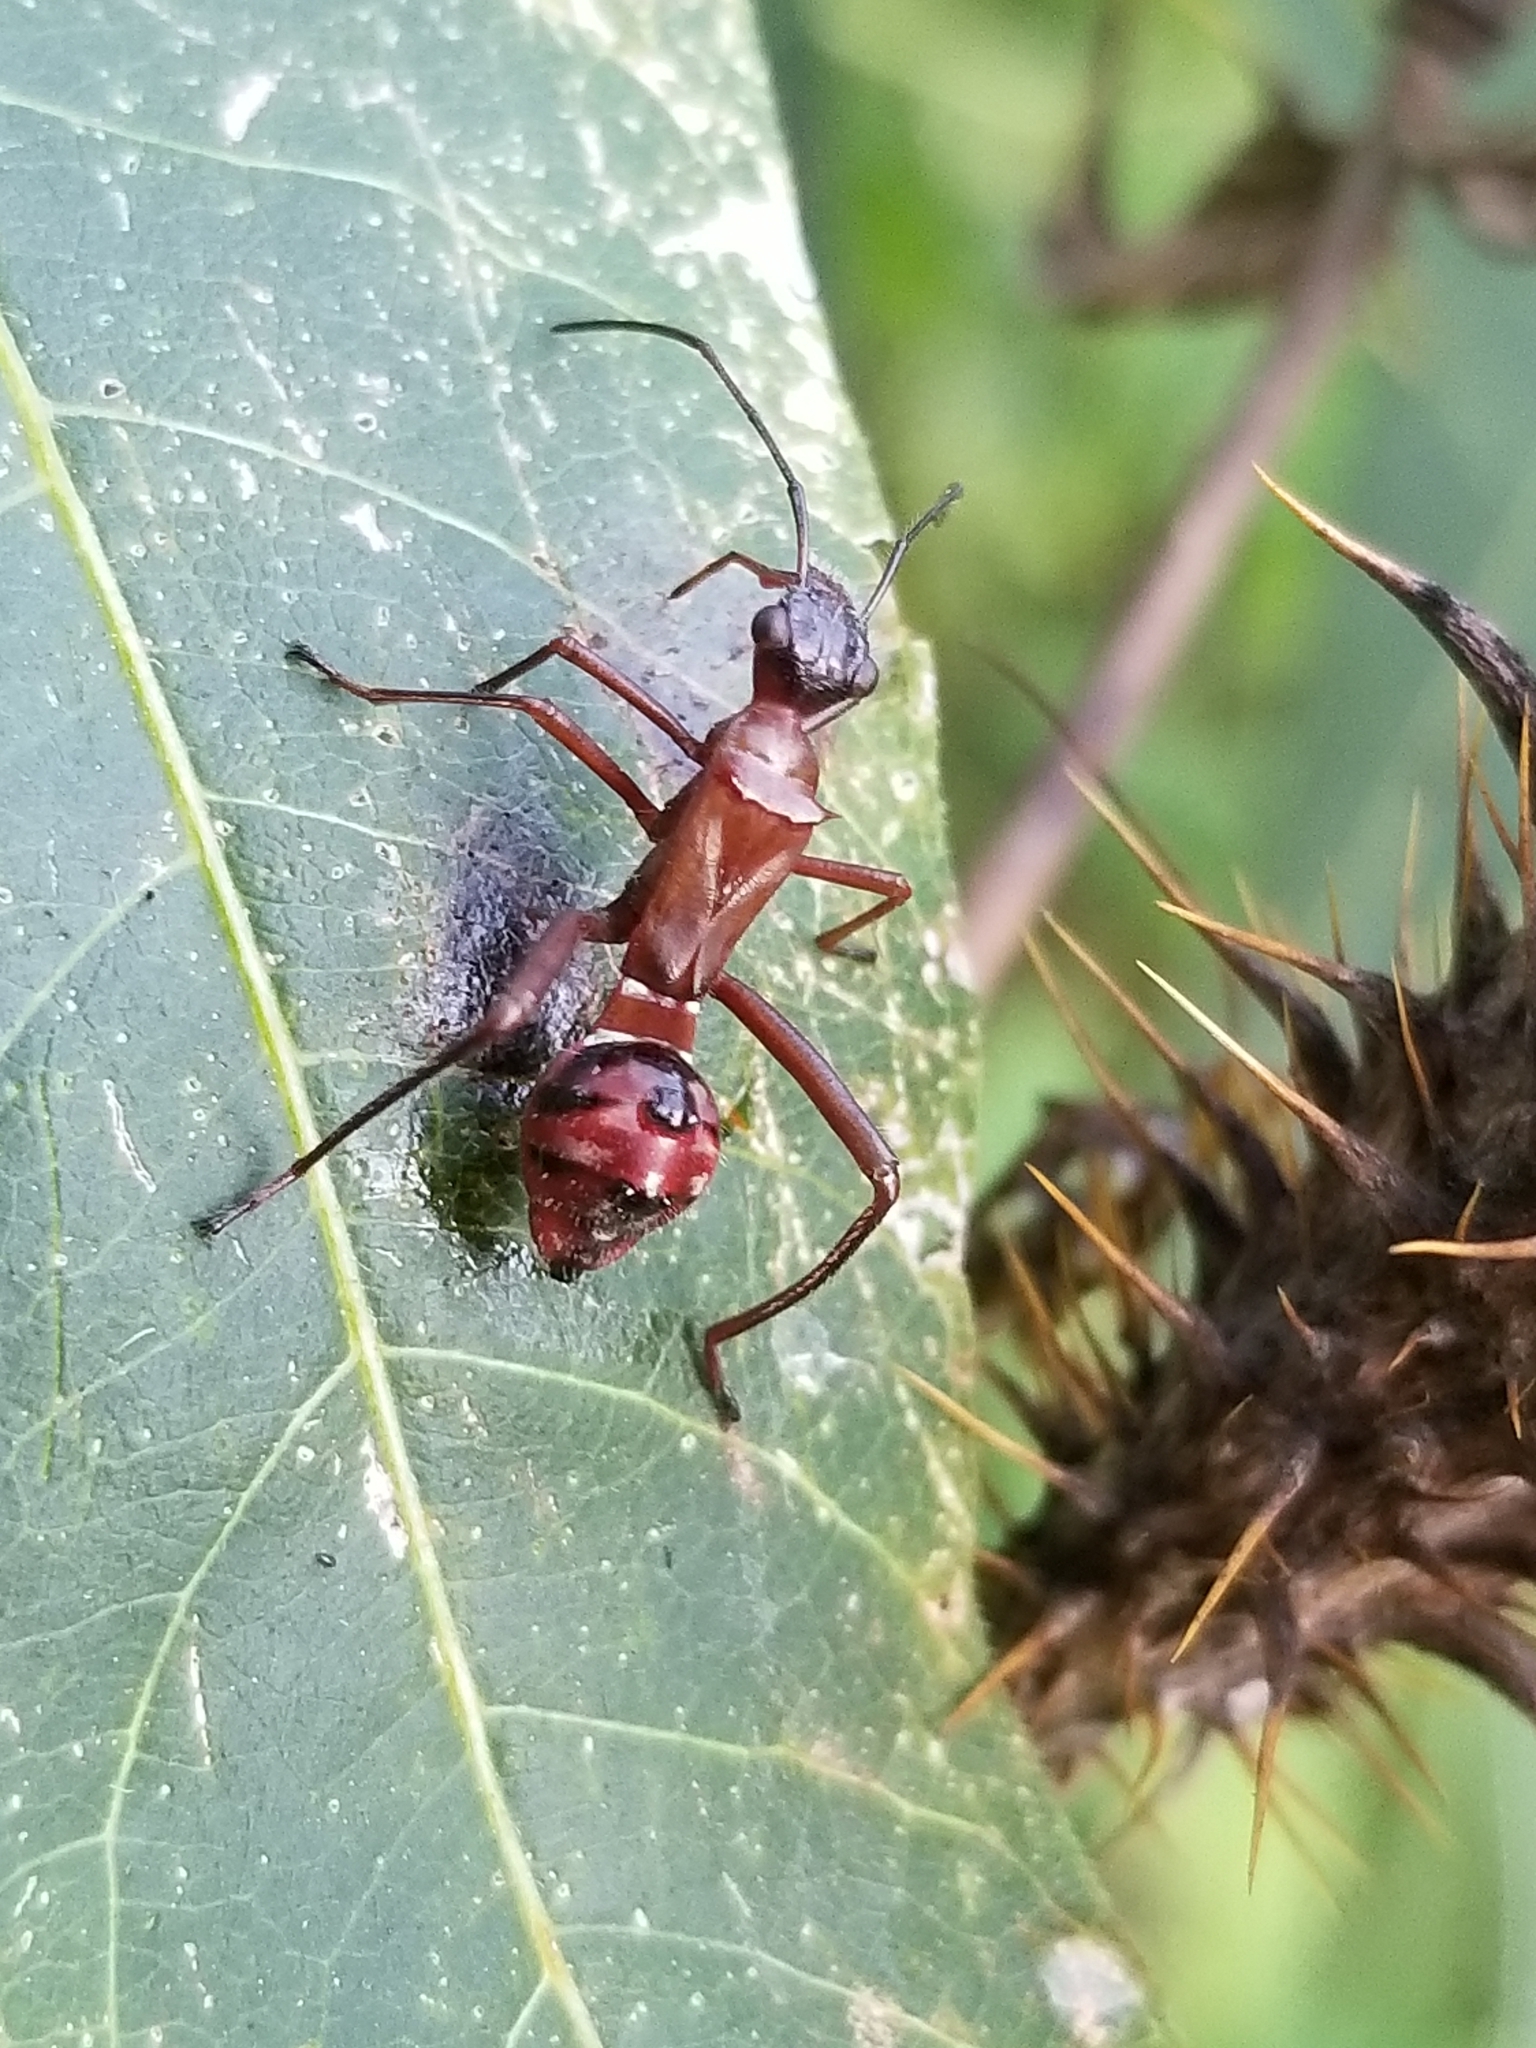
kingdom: Animalia
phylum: Arthropoda
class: Insecta
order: Hemiptera
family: Alydidae
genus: Hyalymenus
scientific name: Hyalymenus tarsatus
